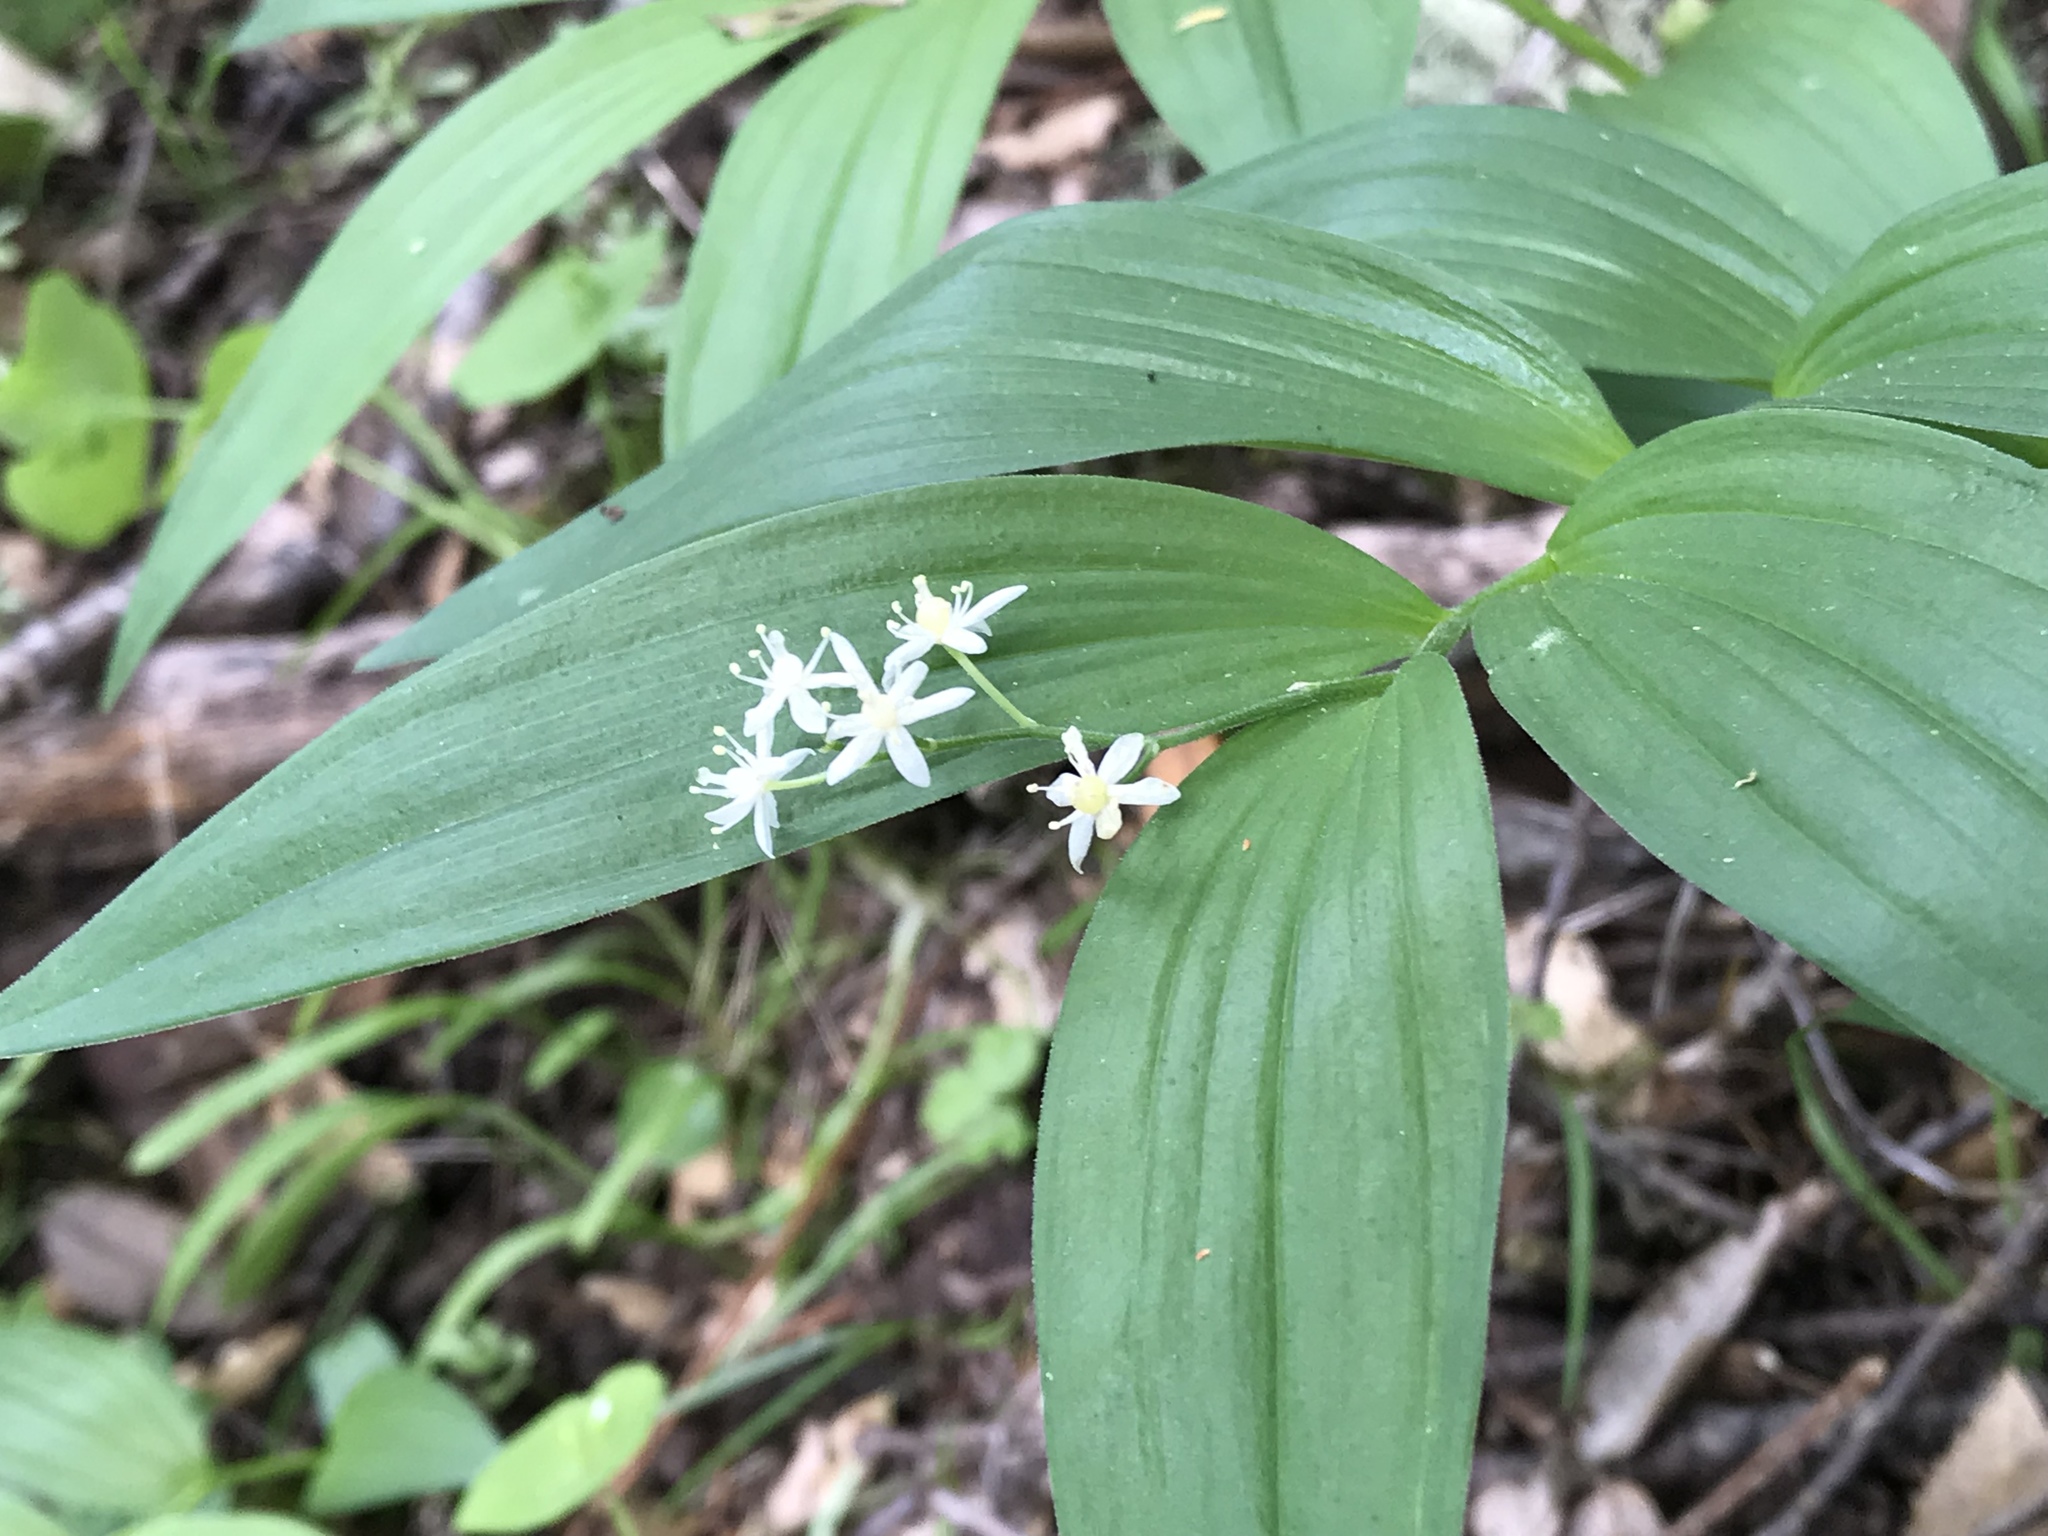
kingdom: Plantae
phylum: Tracheophyta
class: Liliopsida
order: Asparagales
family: Asparagaceae
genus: Maianthemum
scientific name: Maianthemum stellatum
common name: Little false solomon's seal
